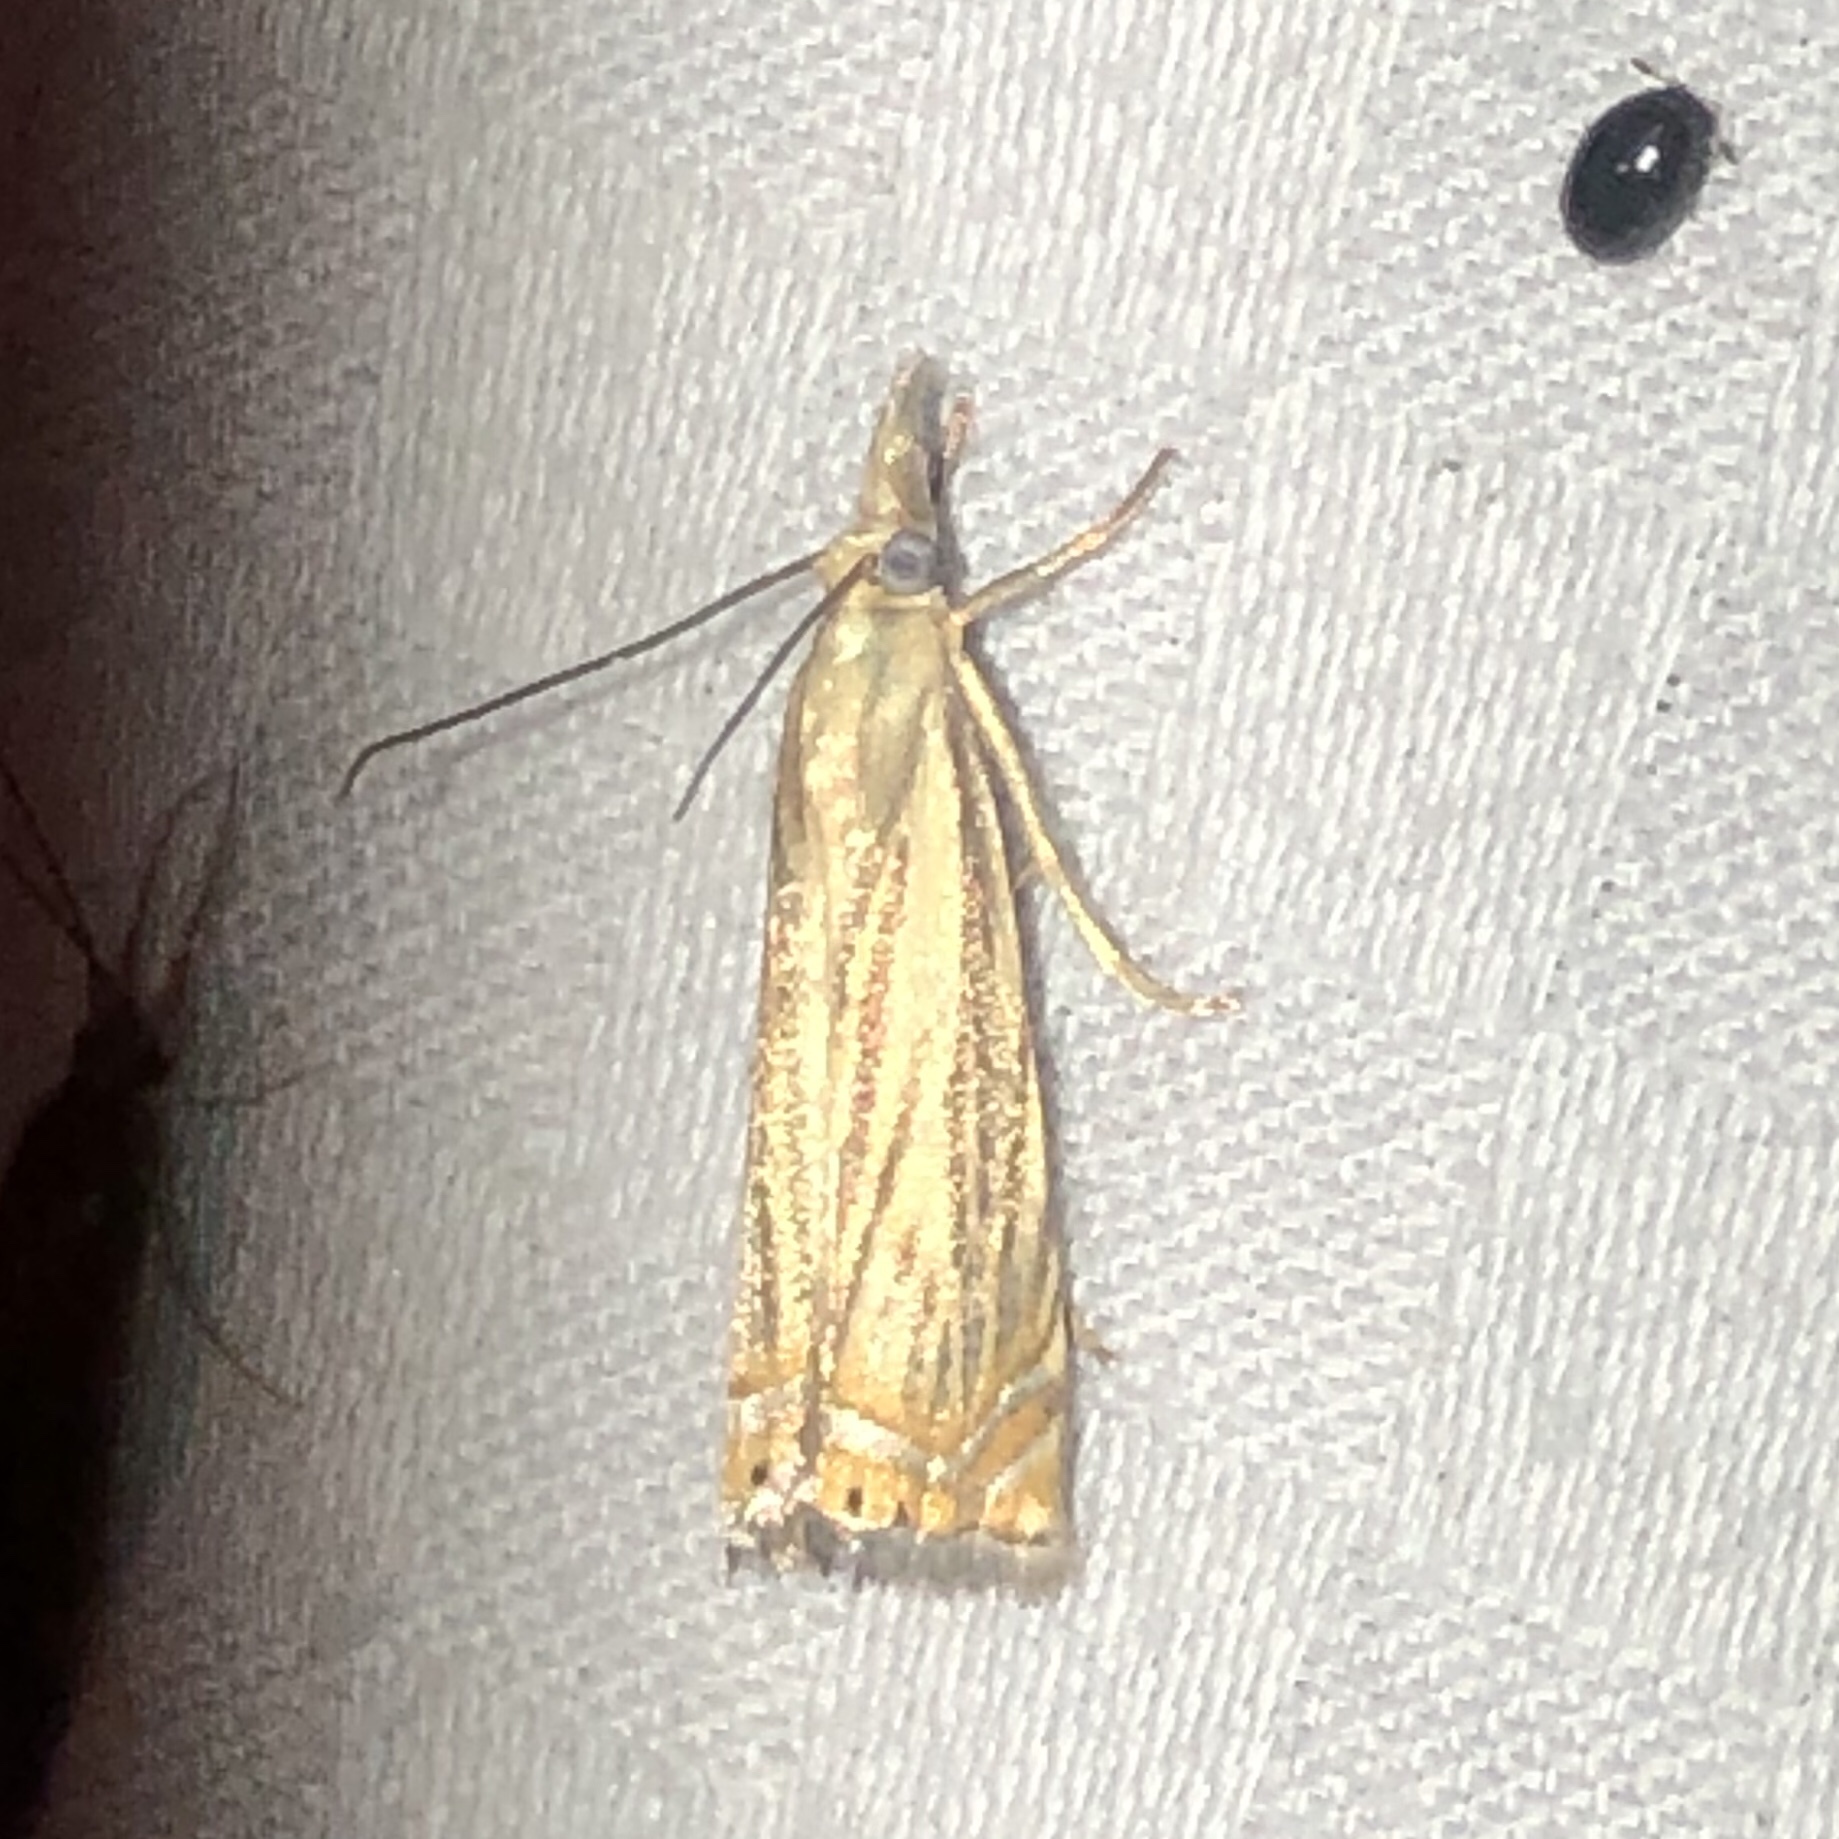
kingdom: Animalia
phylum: Arthropoda
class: Insecta
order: Lepidoptera
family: Crambidae
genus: Chrysoteuchia
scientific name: Chrysoteuchia topiarius
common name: Topiary grass-veneer
